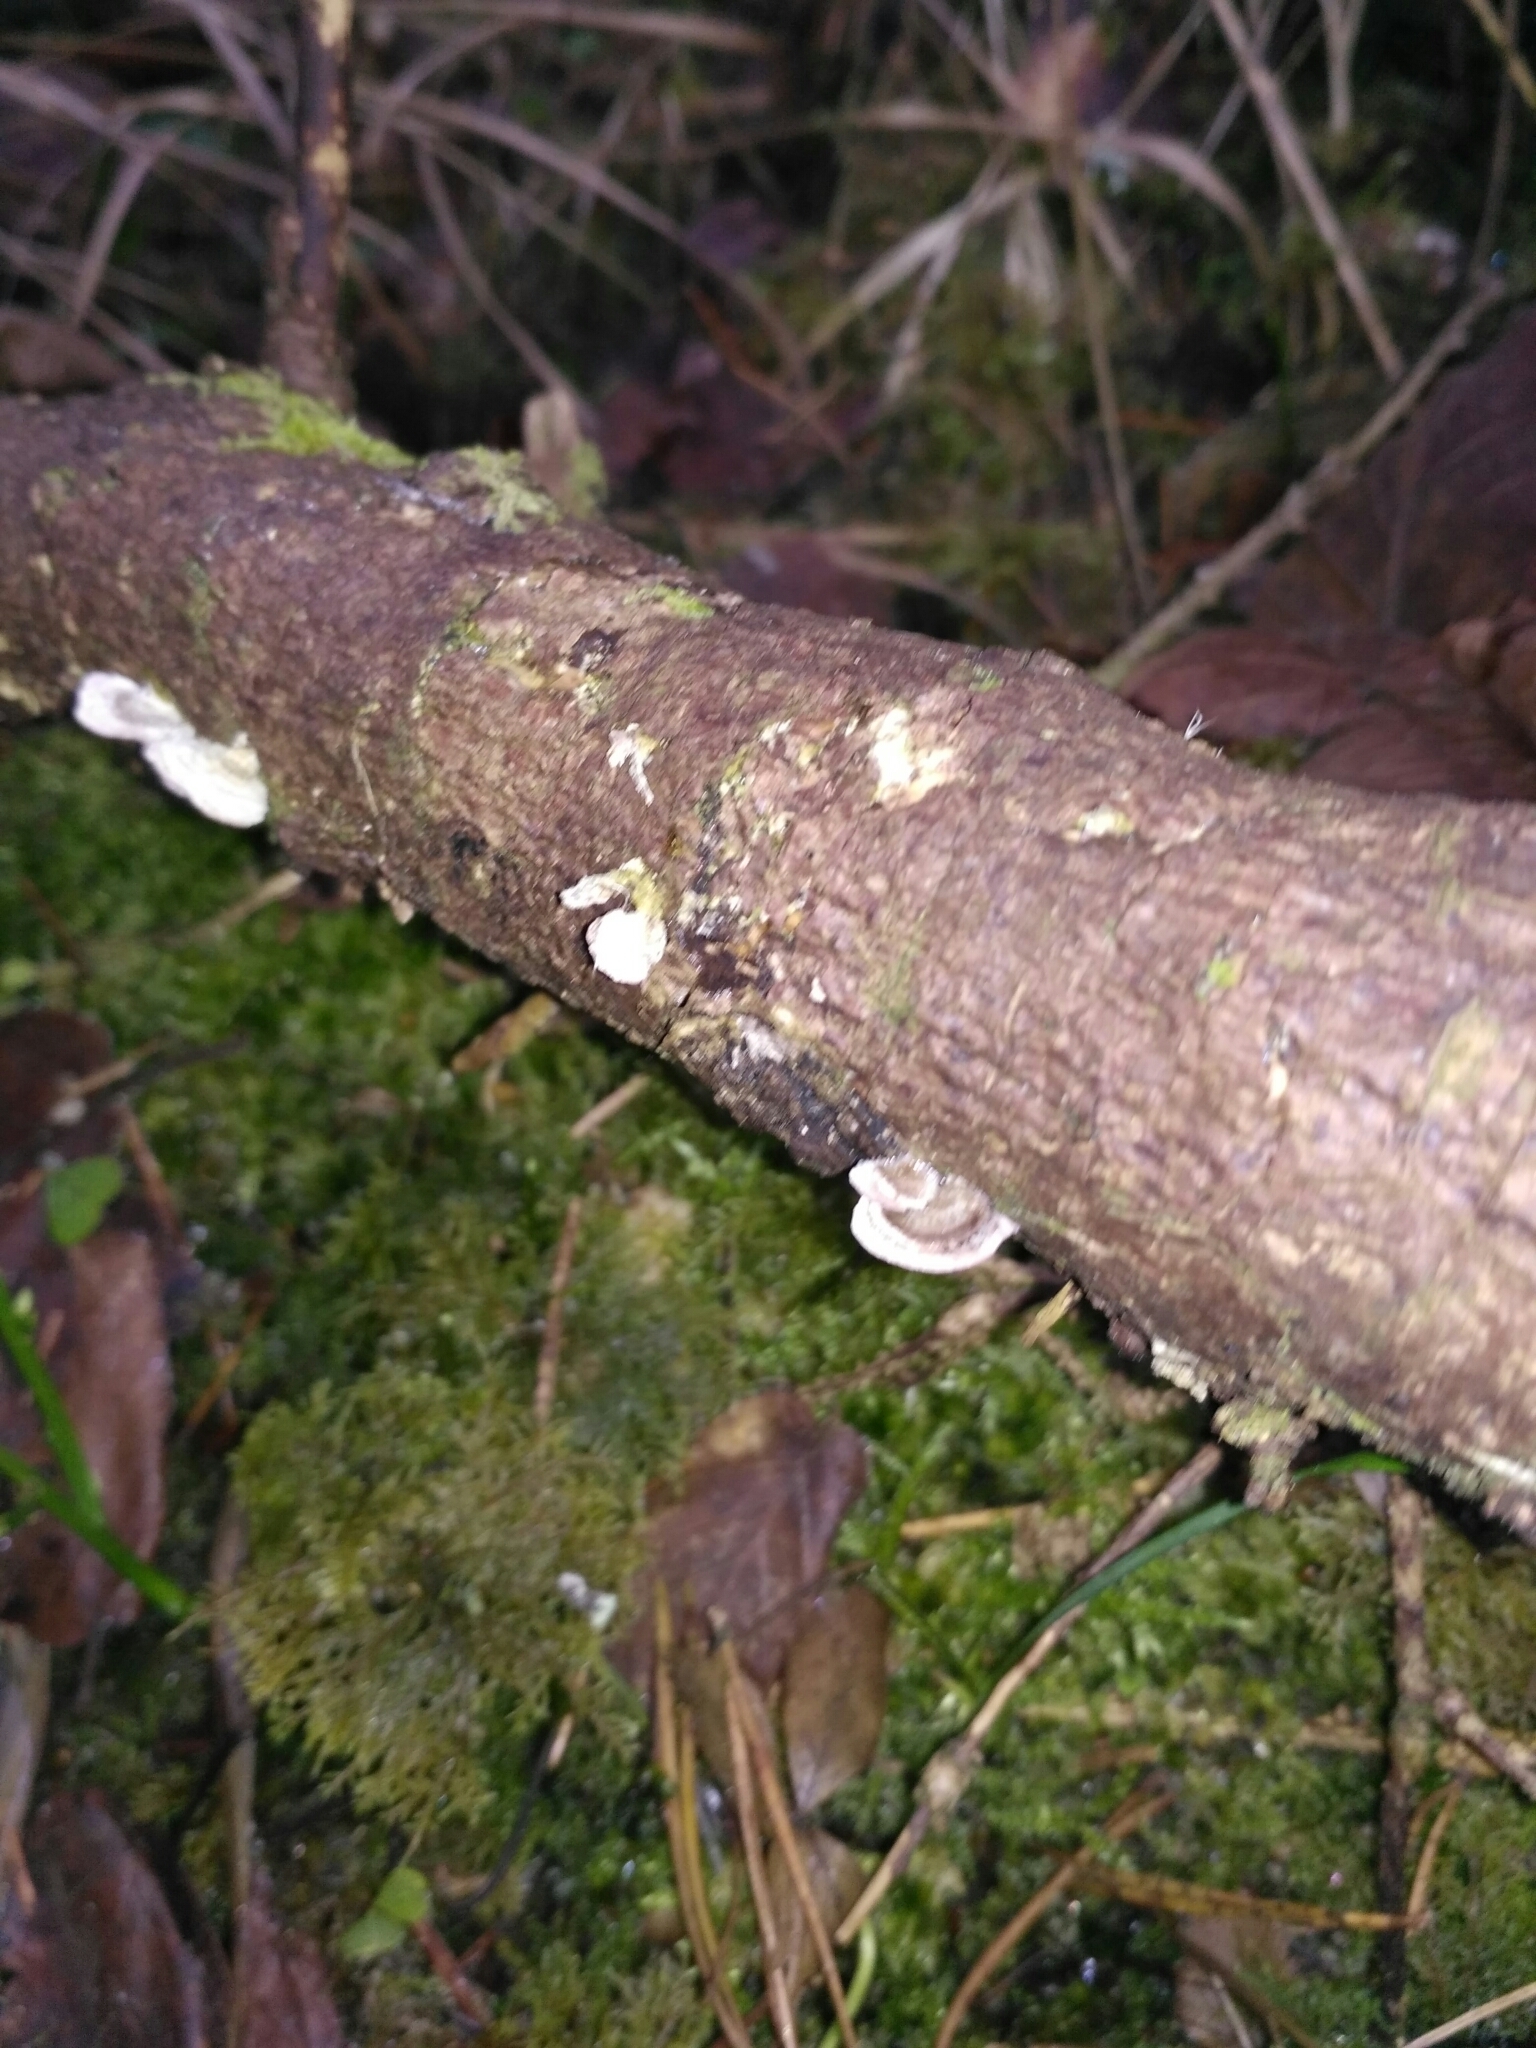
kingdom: Fungi
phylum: Basidiomycota
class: Agaricomycetes
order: Hymenochaetales
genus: Trichaptum
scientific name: Trichaptum abietinum
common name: Purplepore bracket
